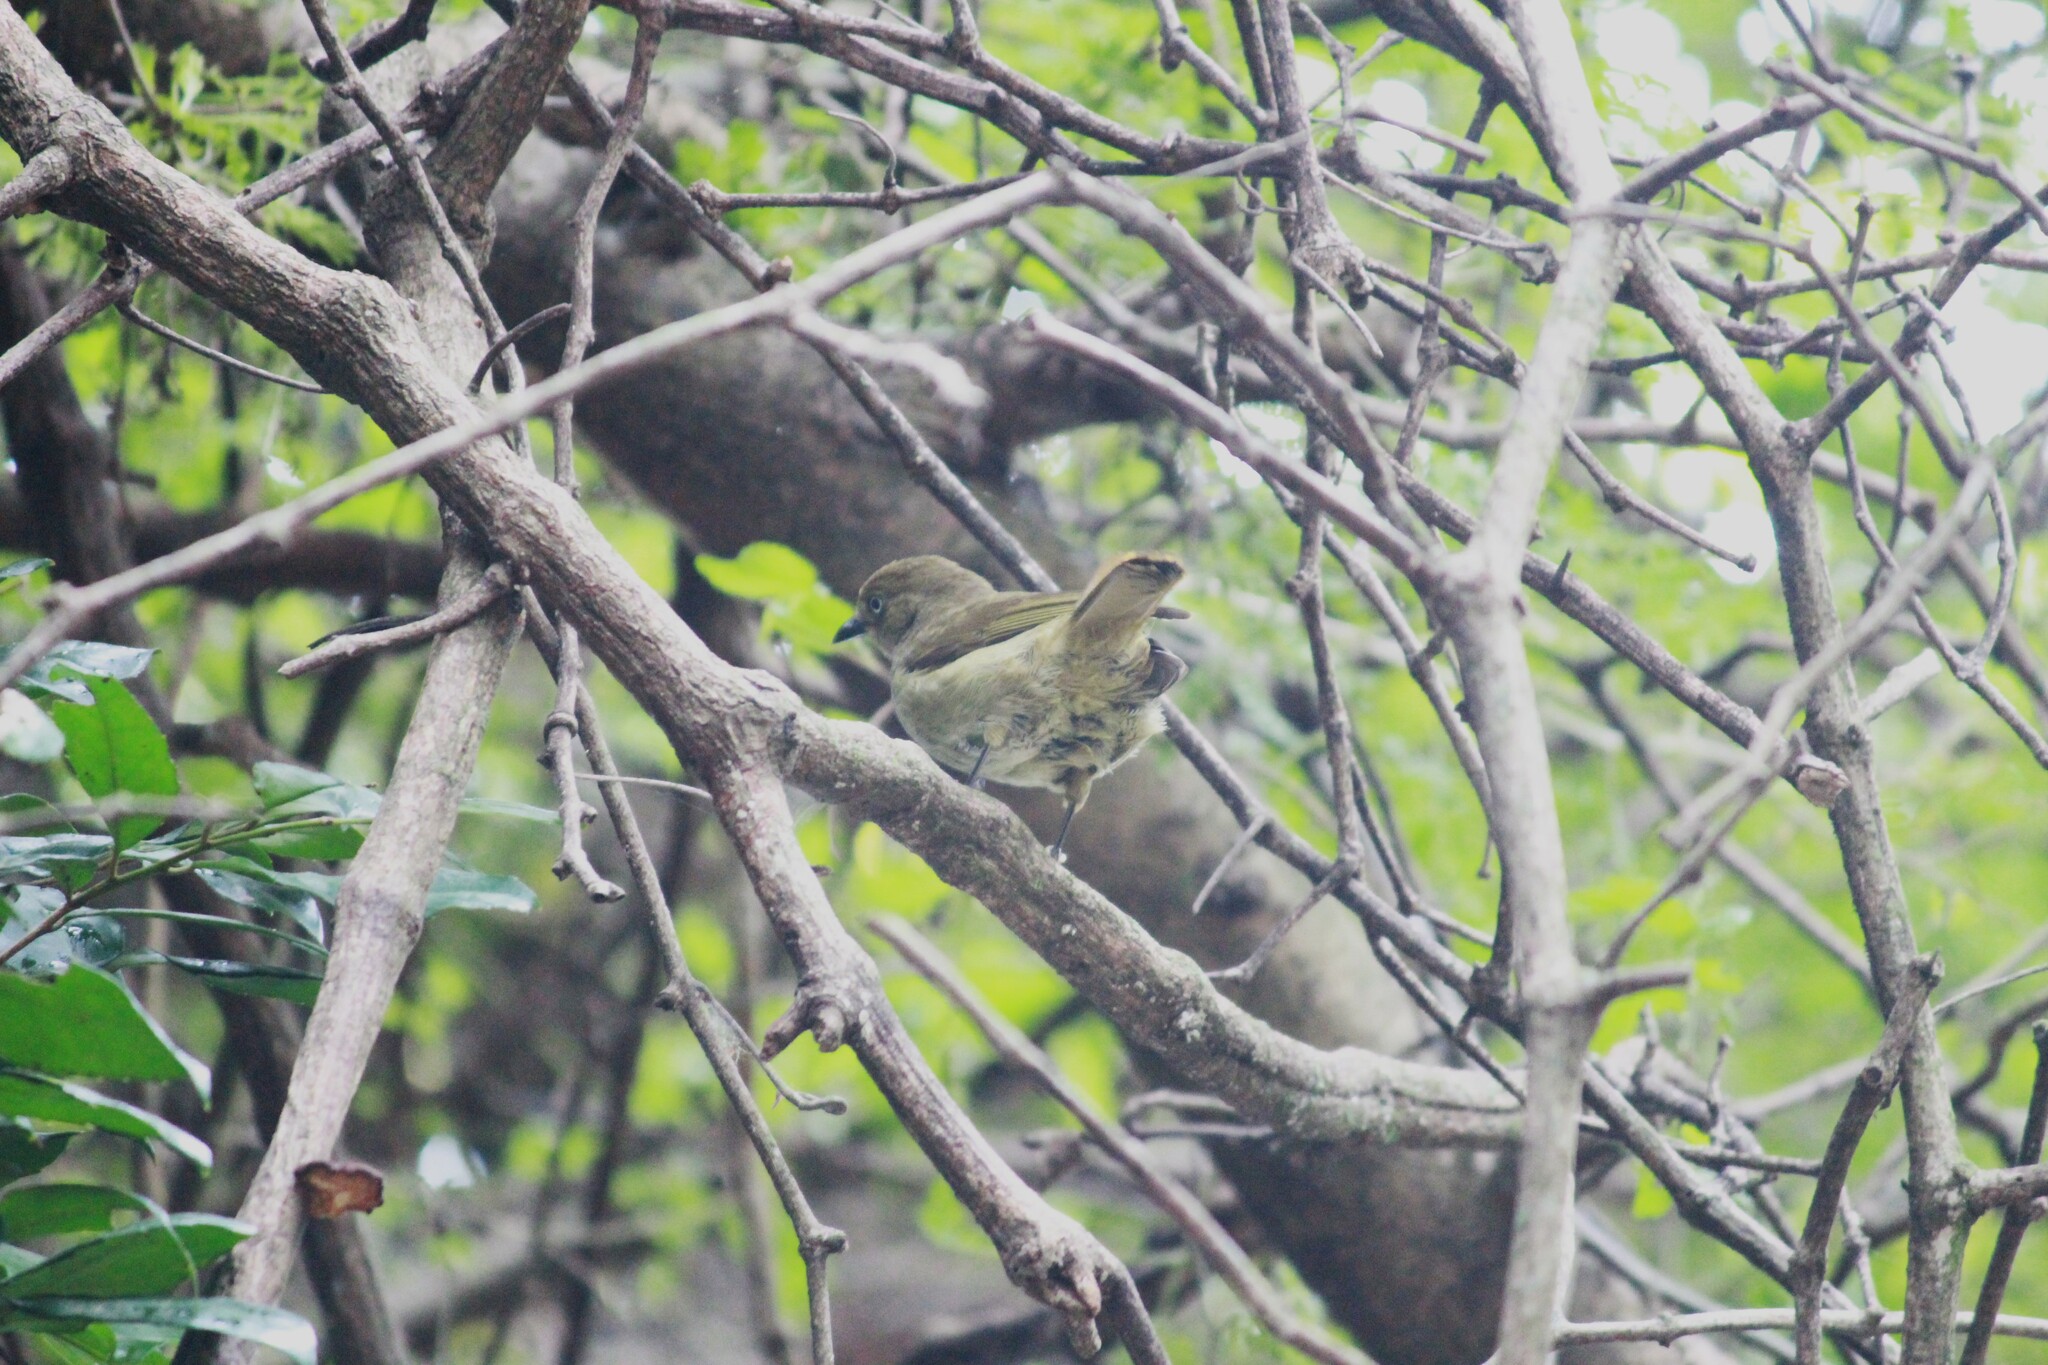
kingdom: Animalia
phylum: Chordata
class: Aves
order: Passeriformes
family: Pycnonotidae
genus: Andropadus
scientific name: Andropadus importunus
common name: Sombre greenbul
